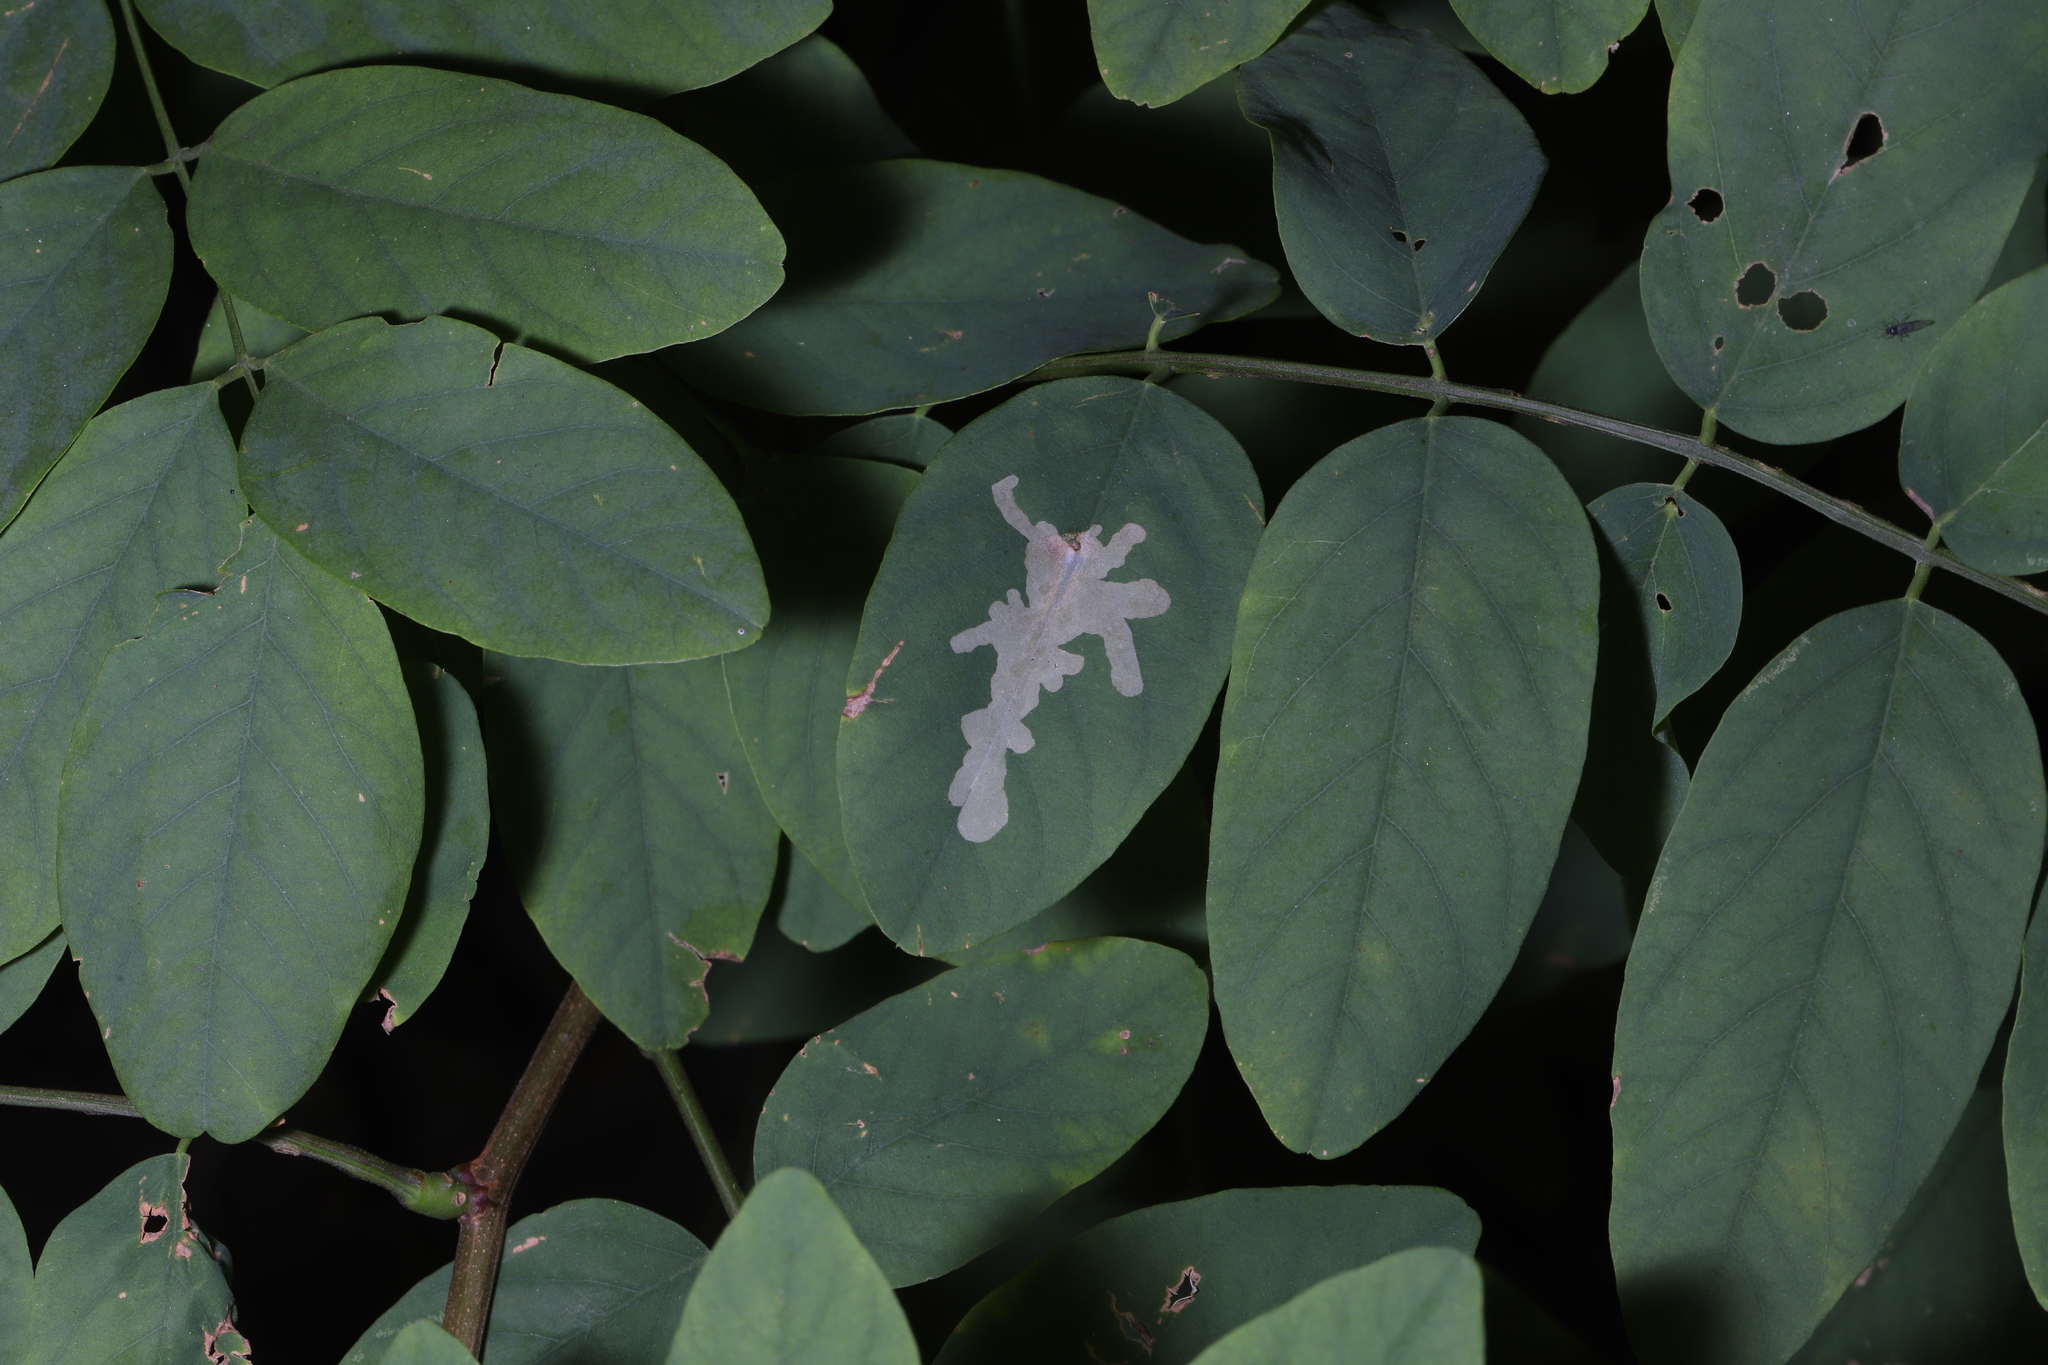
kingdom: Animalia
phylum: Arthropoda
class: Insecta
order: Lepidoptera
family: Gracillariidae
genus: Parectopa
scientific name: Parectopa robiniella
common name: Locust digitate leafminer
